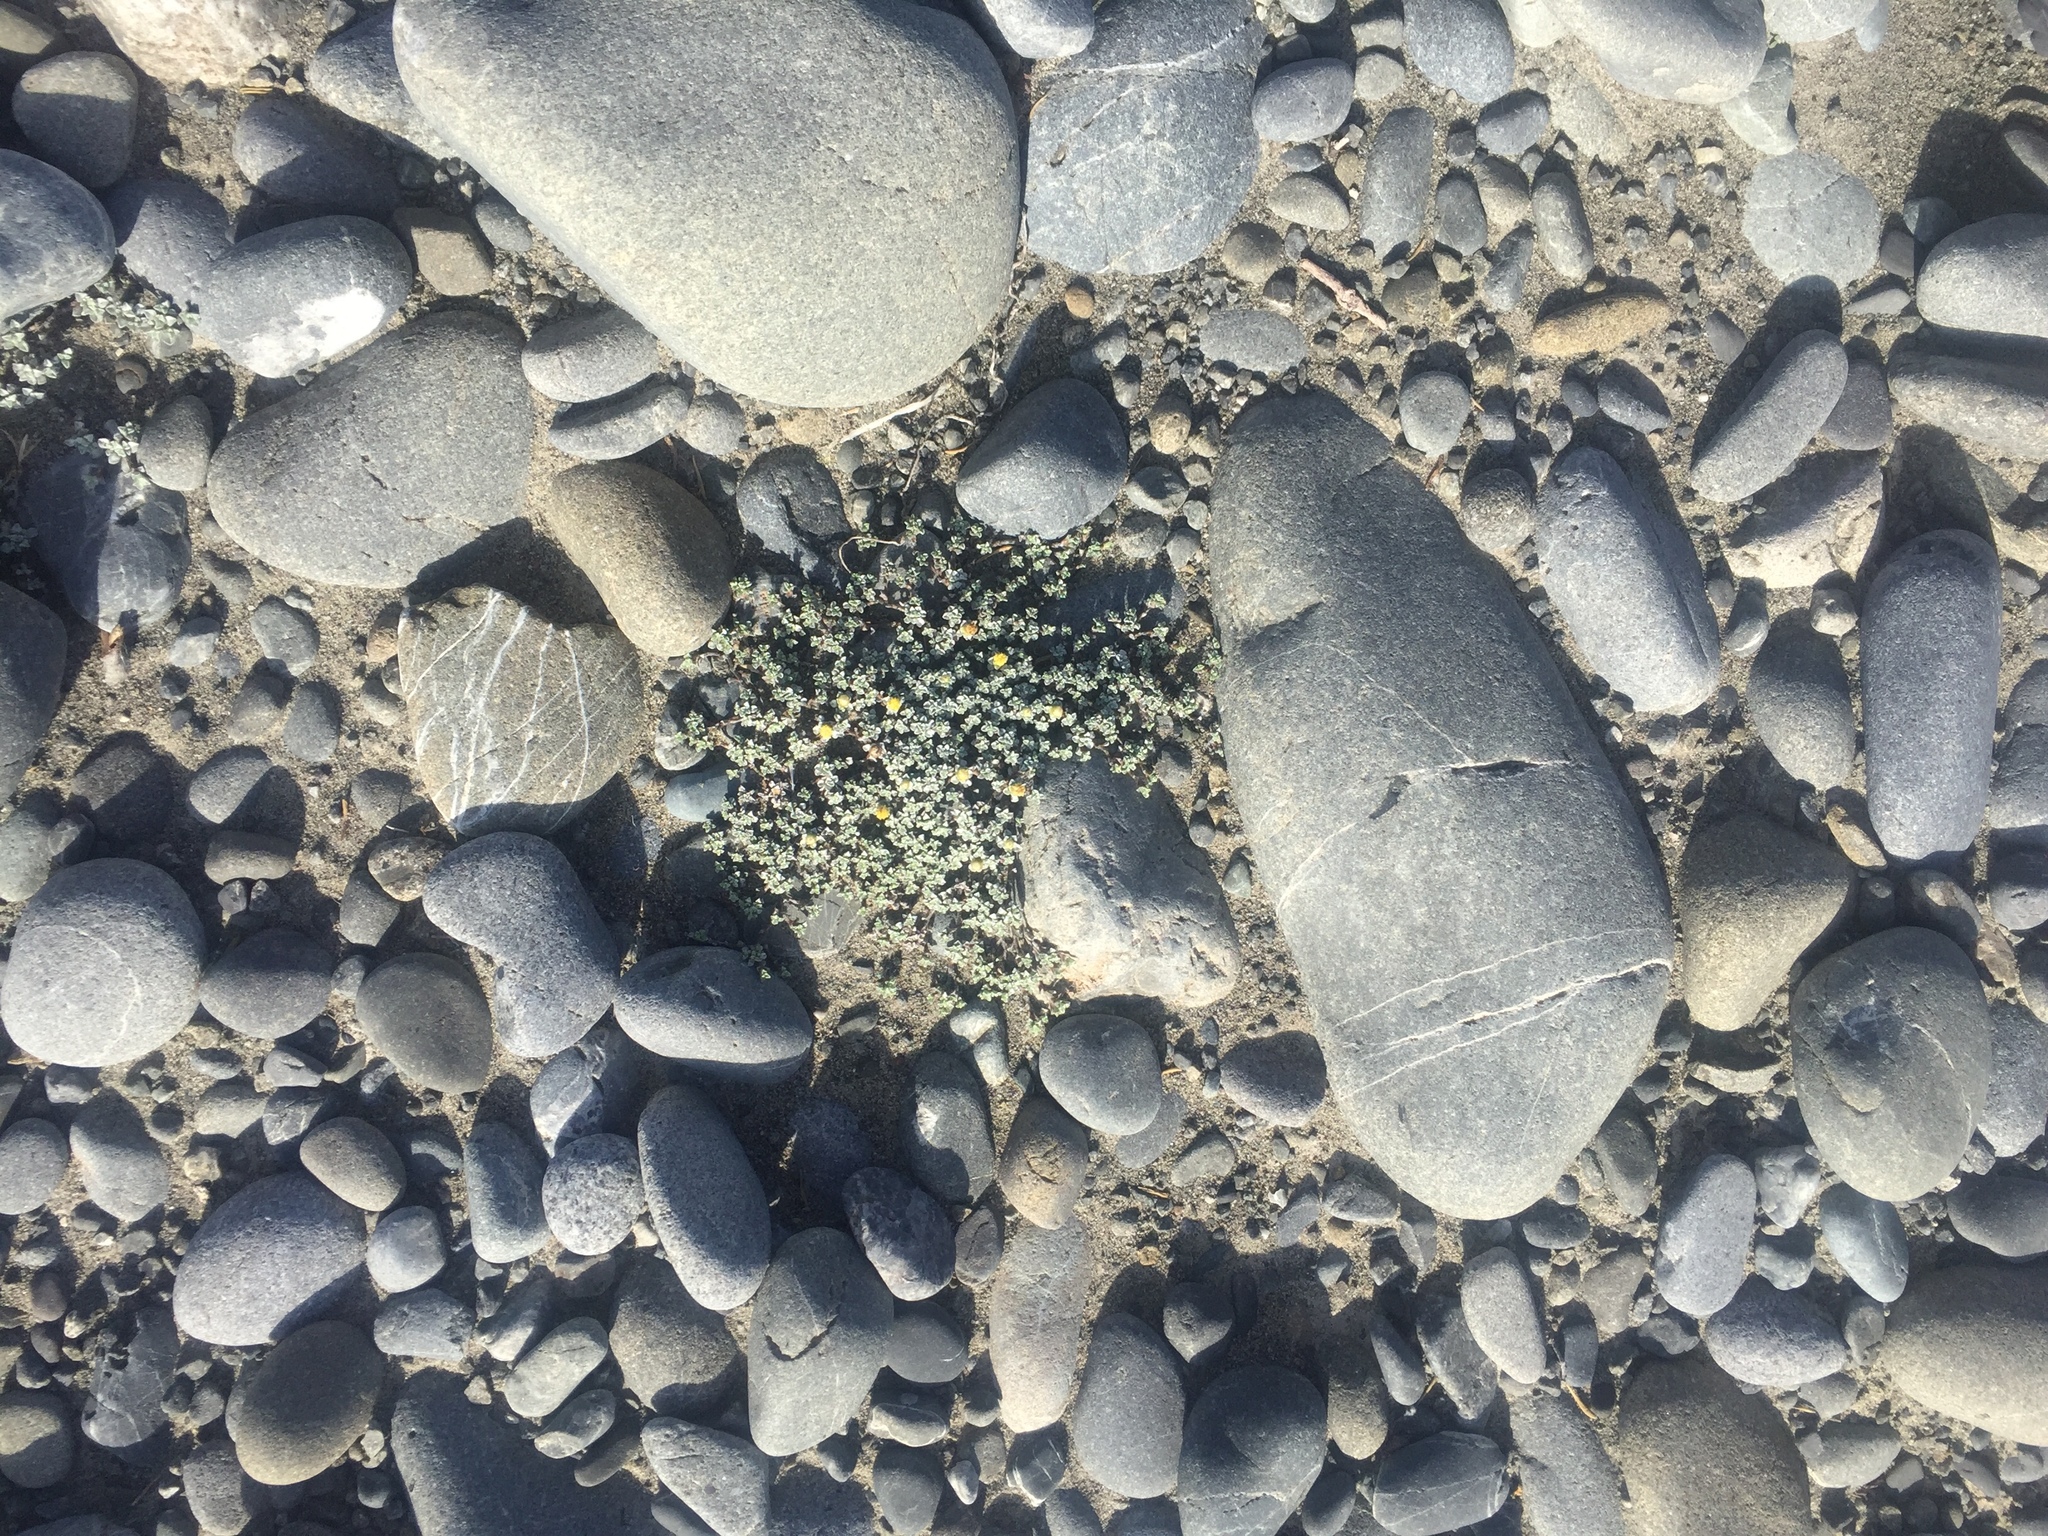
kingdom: Plantae
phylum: Tracheophyta
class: Magnoliopsida
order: Asterales
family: Asteraceae
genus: Raoulia
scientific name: Raoulia hookeri
